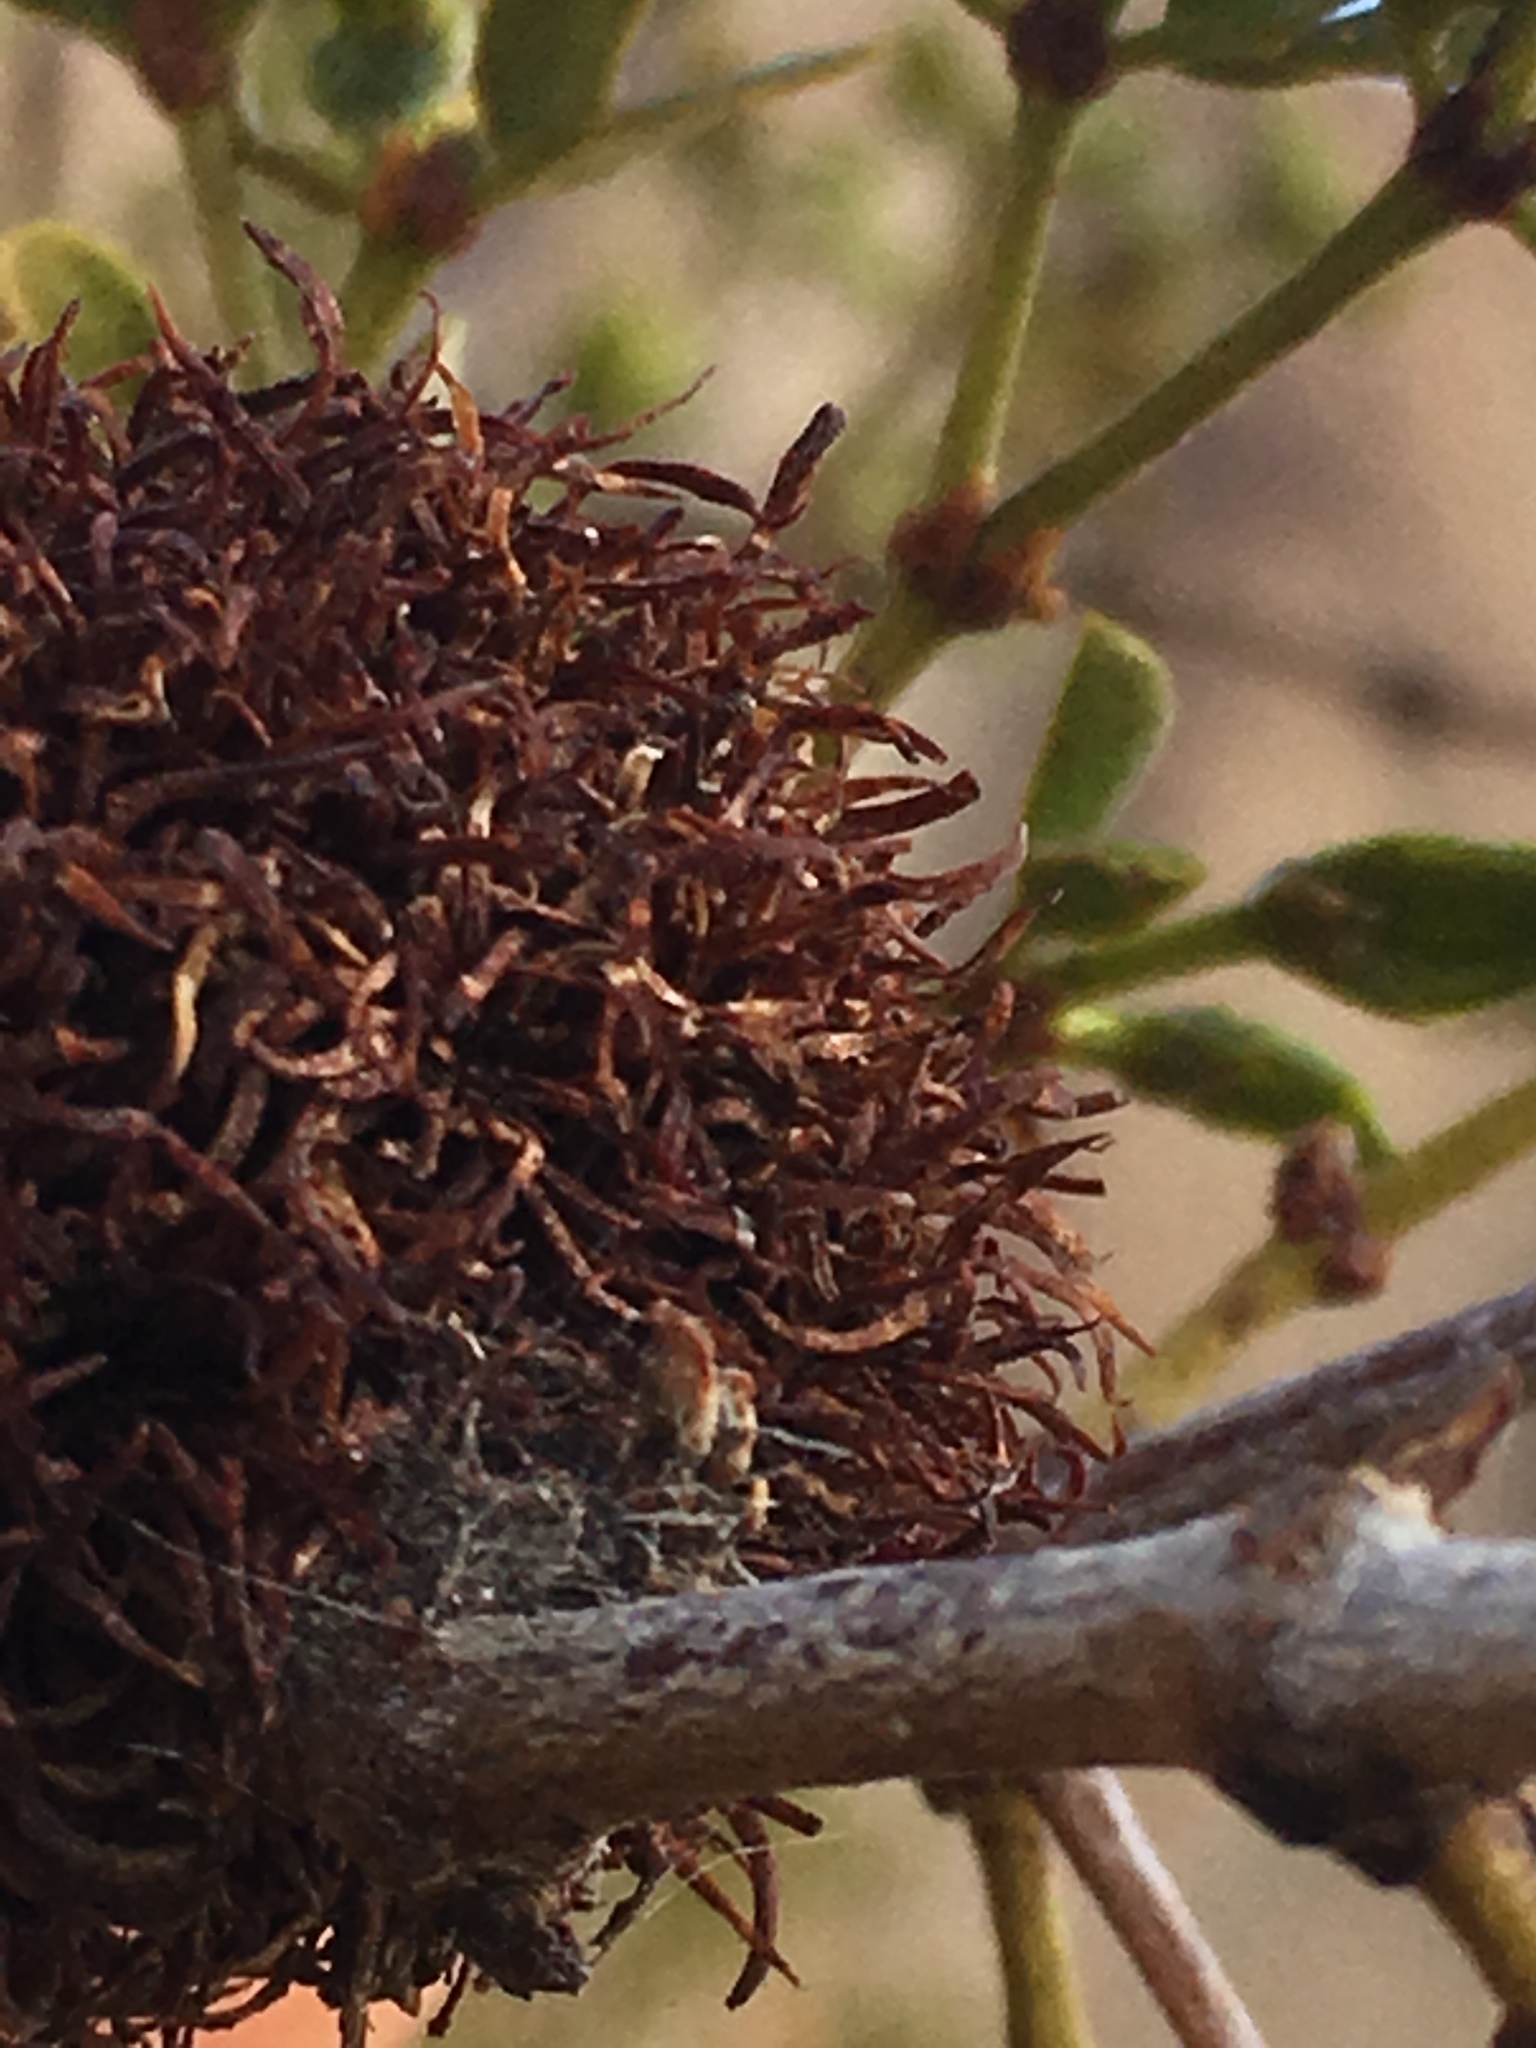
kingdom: Animalia
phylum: Arthropoda
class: Insecta
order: Diptera
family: Cecidomyiidae
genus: Asphondylia
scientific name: Asphondylia auripila
